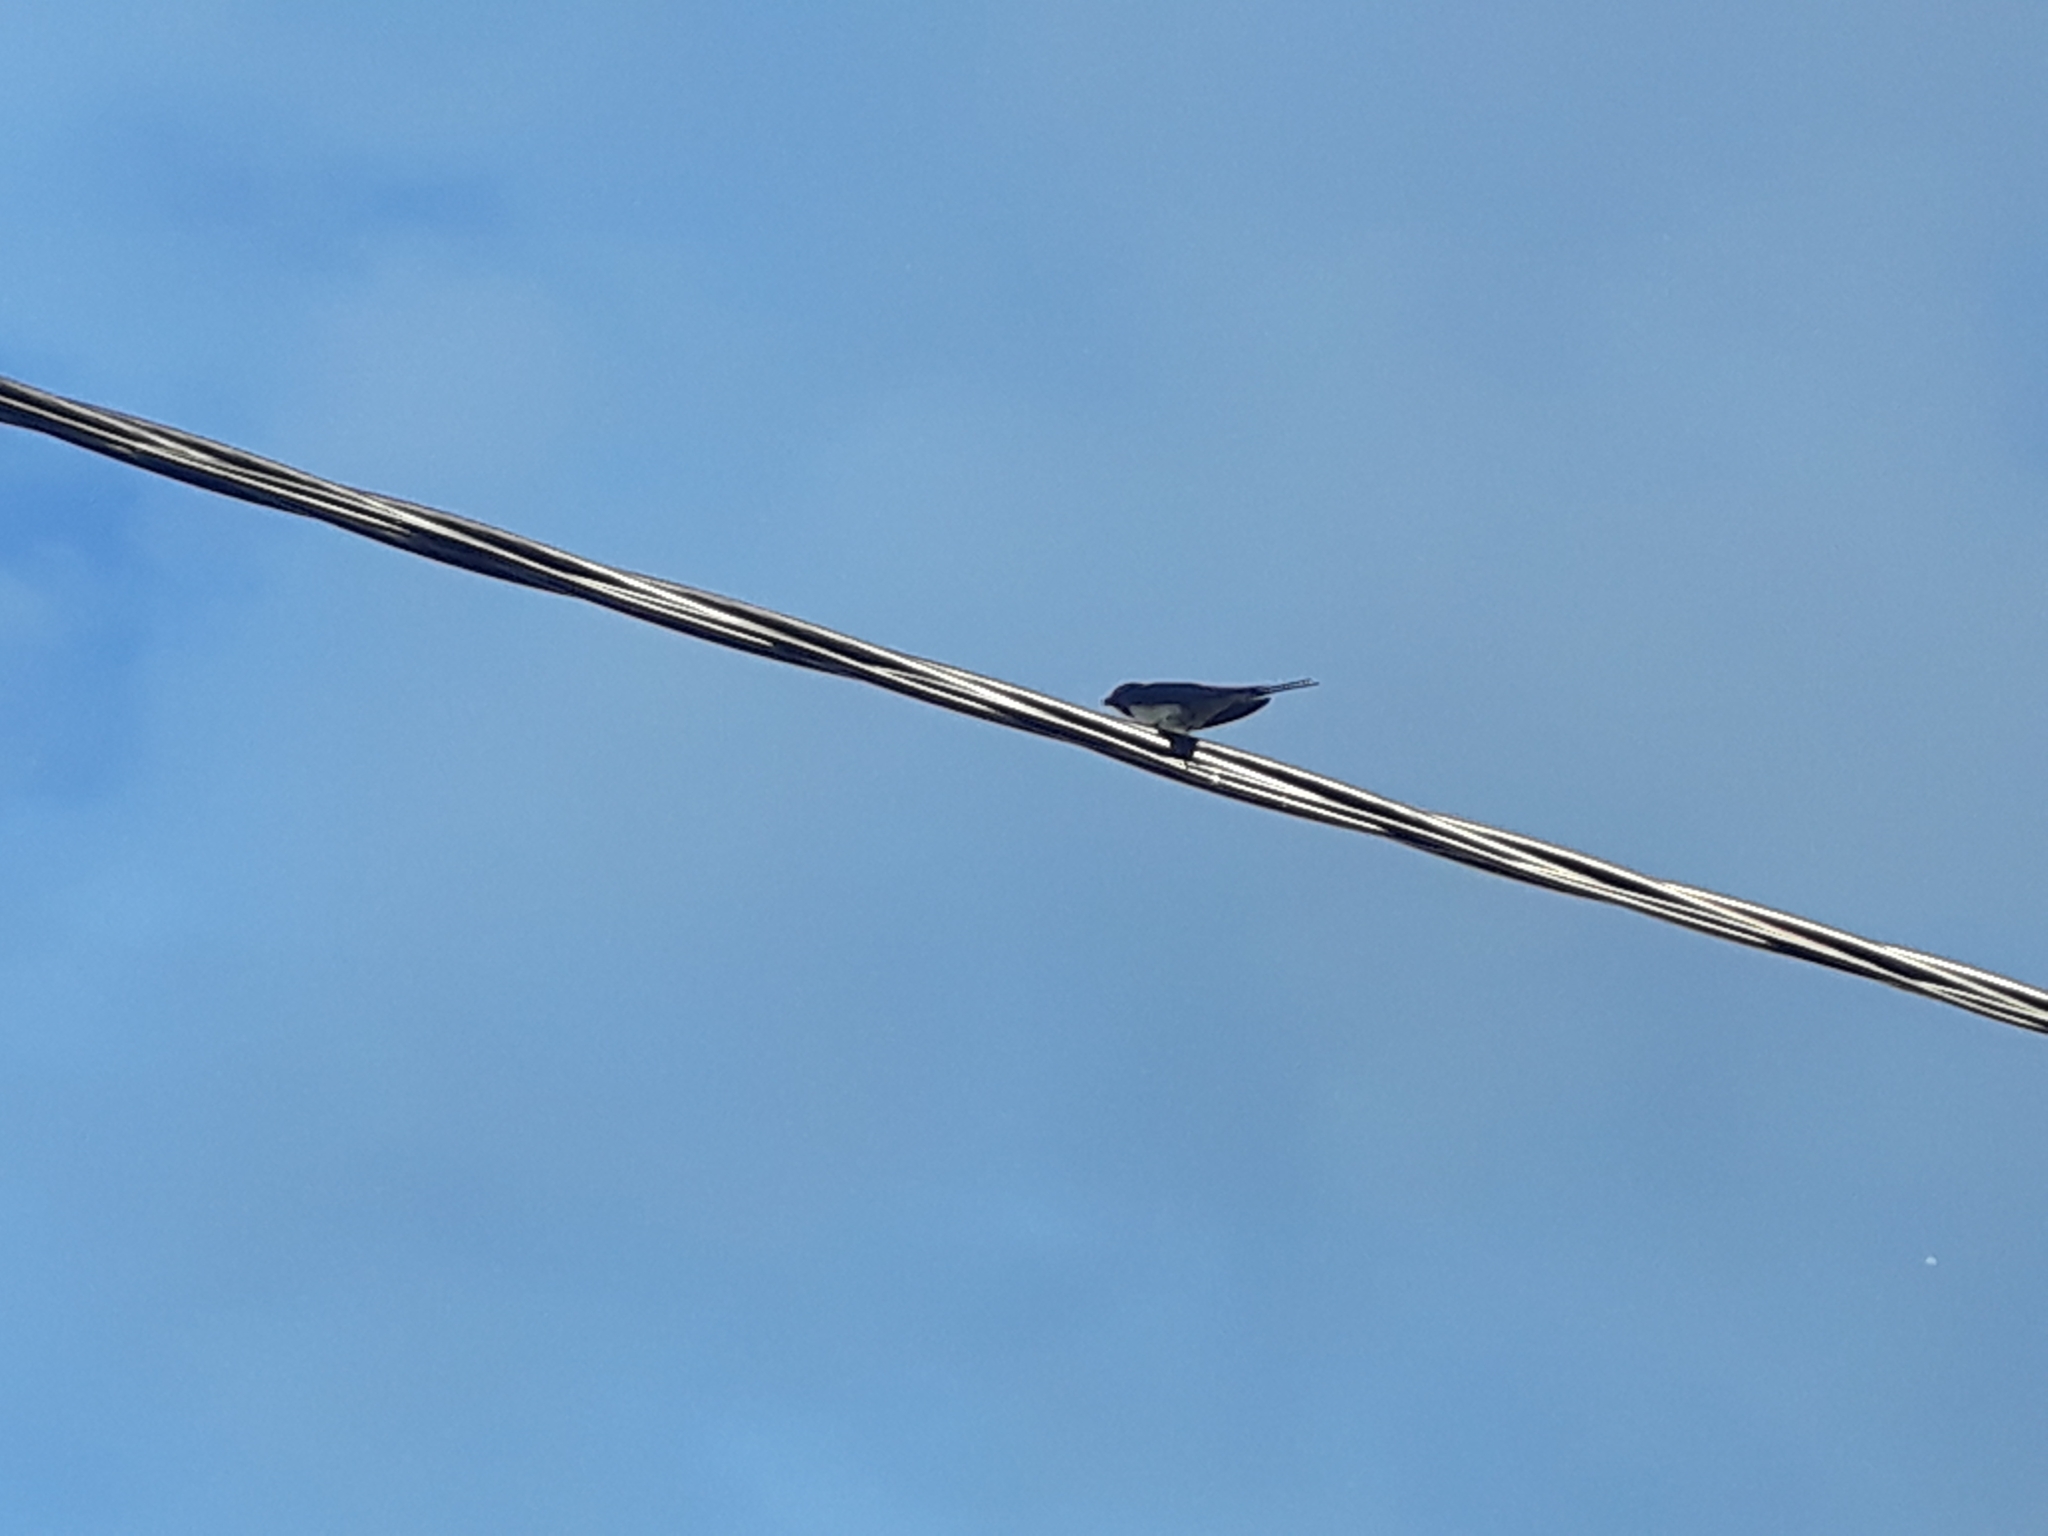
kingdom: Animalia
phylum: Chordata
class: Aves
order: Passeriformes
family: Hirundinidae
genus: Hirundo
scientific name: Hirundo rustica
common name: Barn swallow
